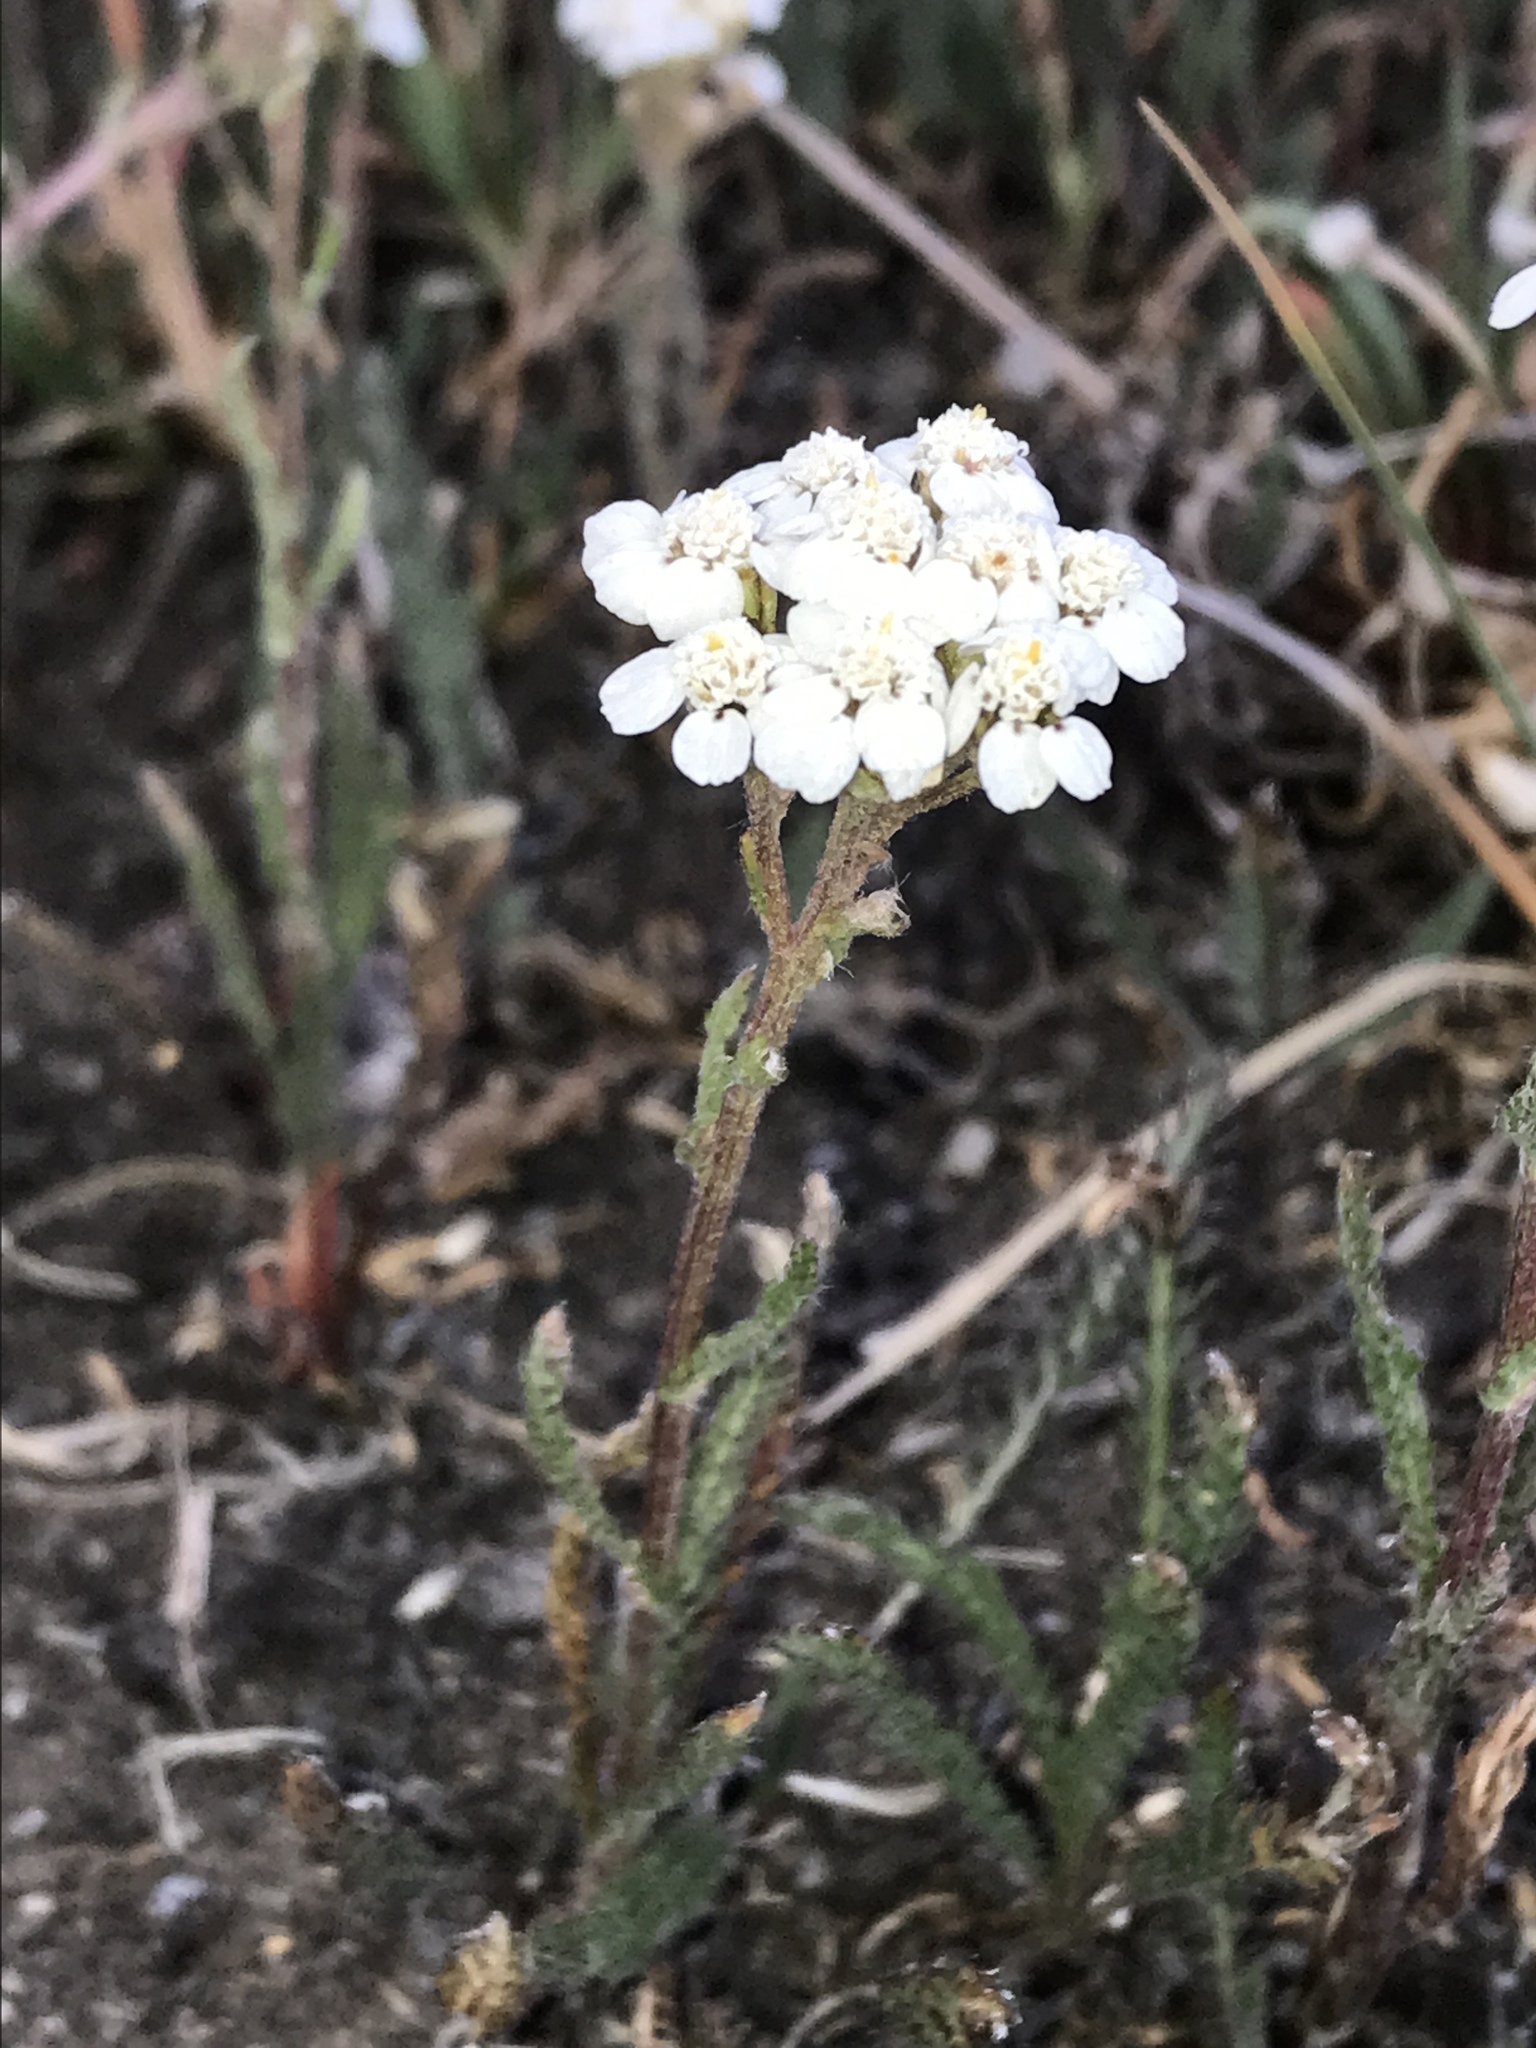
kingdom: Plantae
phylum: Tracheophyta
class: Magnoliopsida
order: Asterales
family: Asteraceae
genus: Achillea
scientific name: Achillea millefolium
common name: Yarrow
